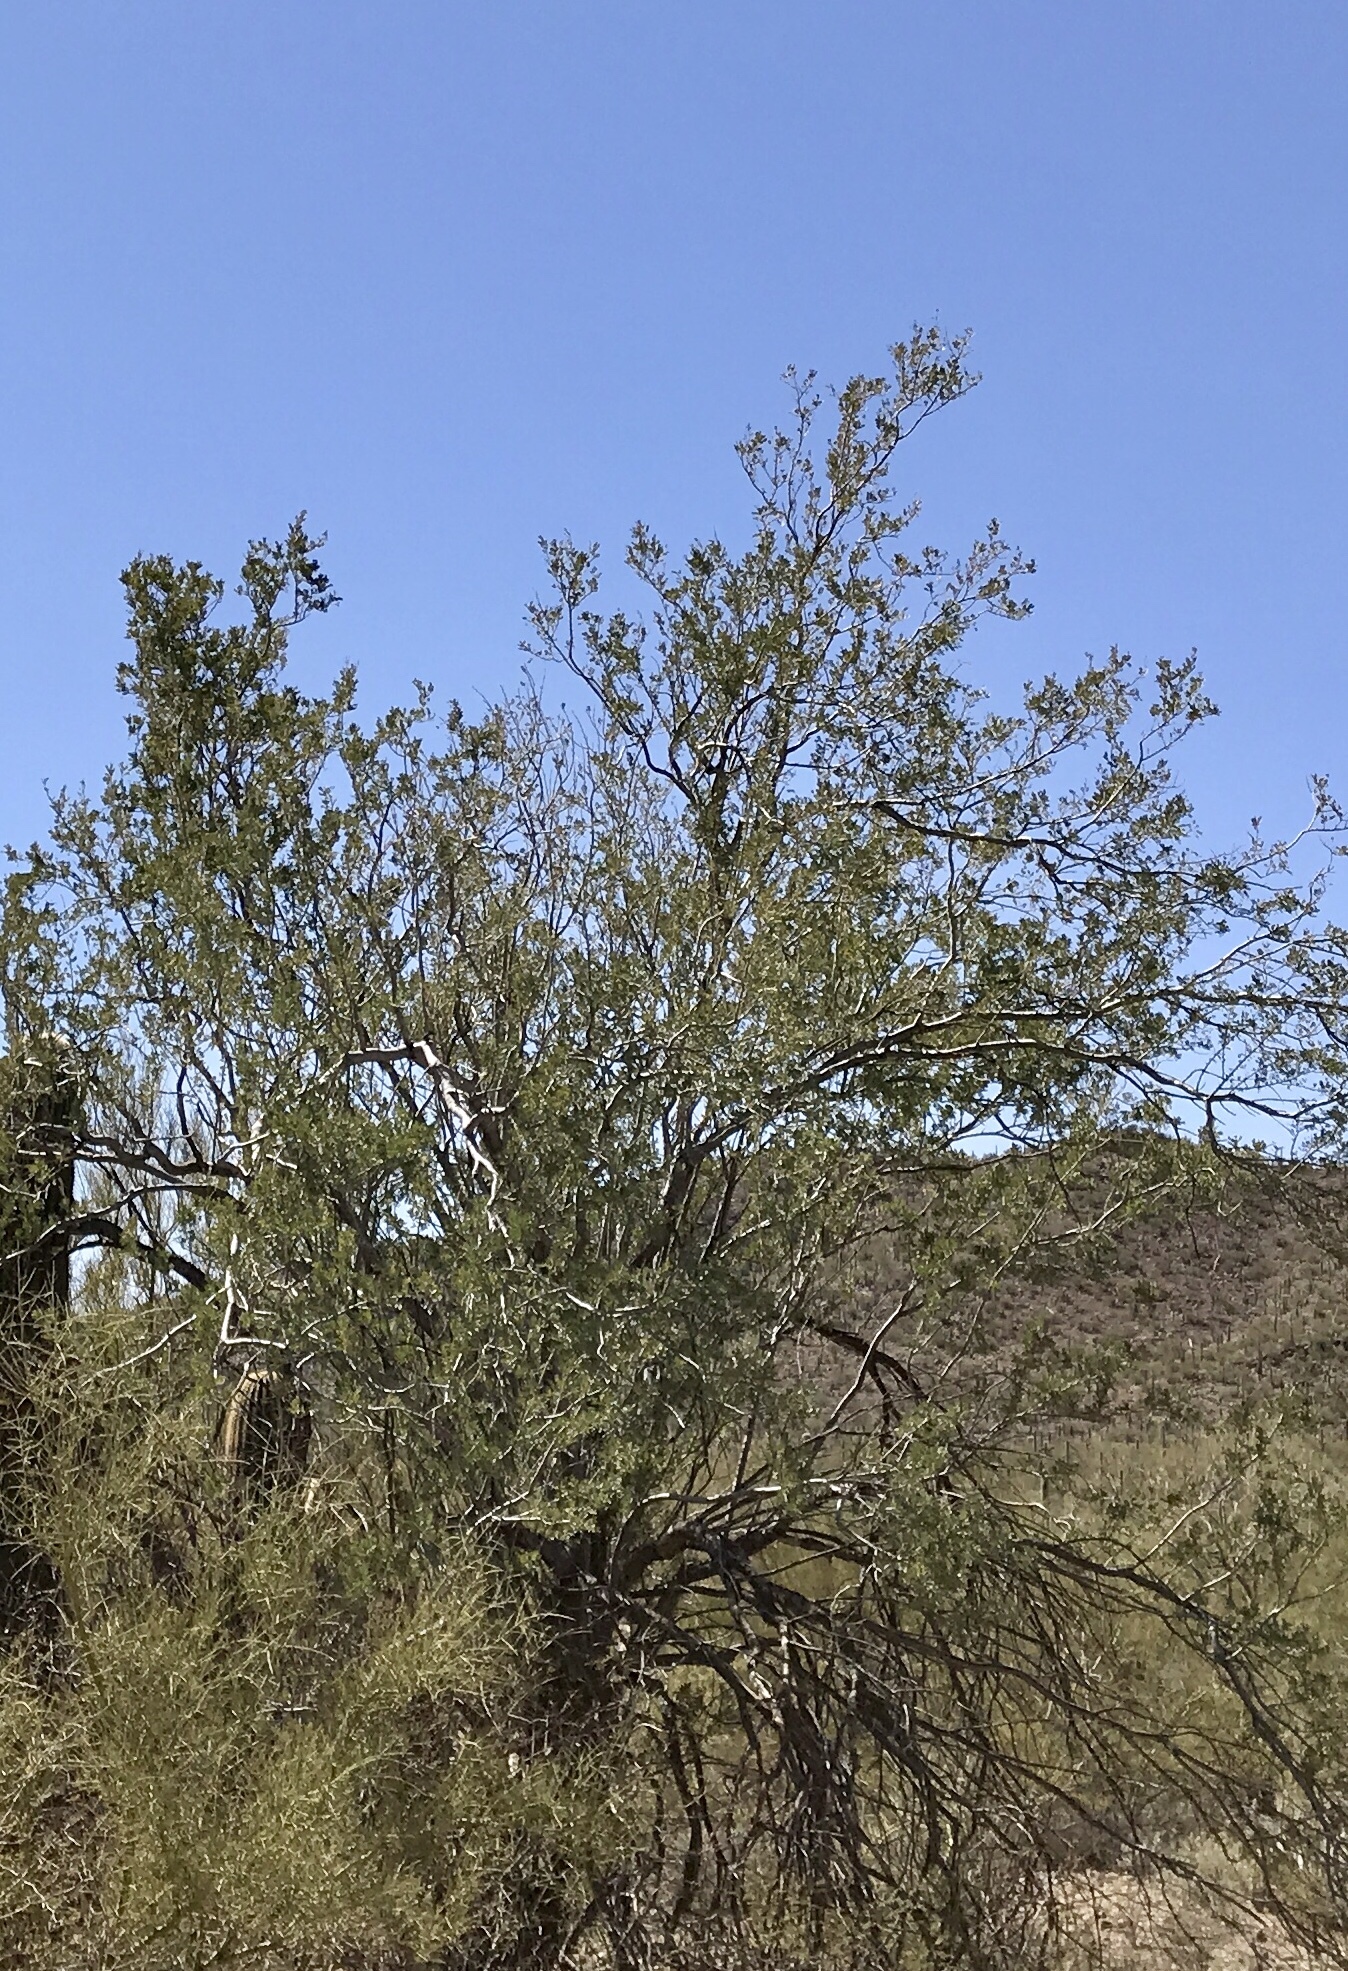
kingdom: Plantae
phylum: Tracheophyta
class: Magnoliopsida
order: Fabales
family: Fabaceae
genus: Olneya
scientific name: Olneya tesota
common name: Desert ironwood
